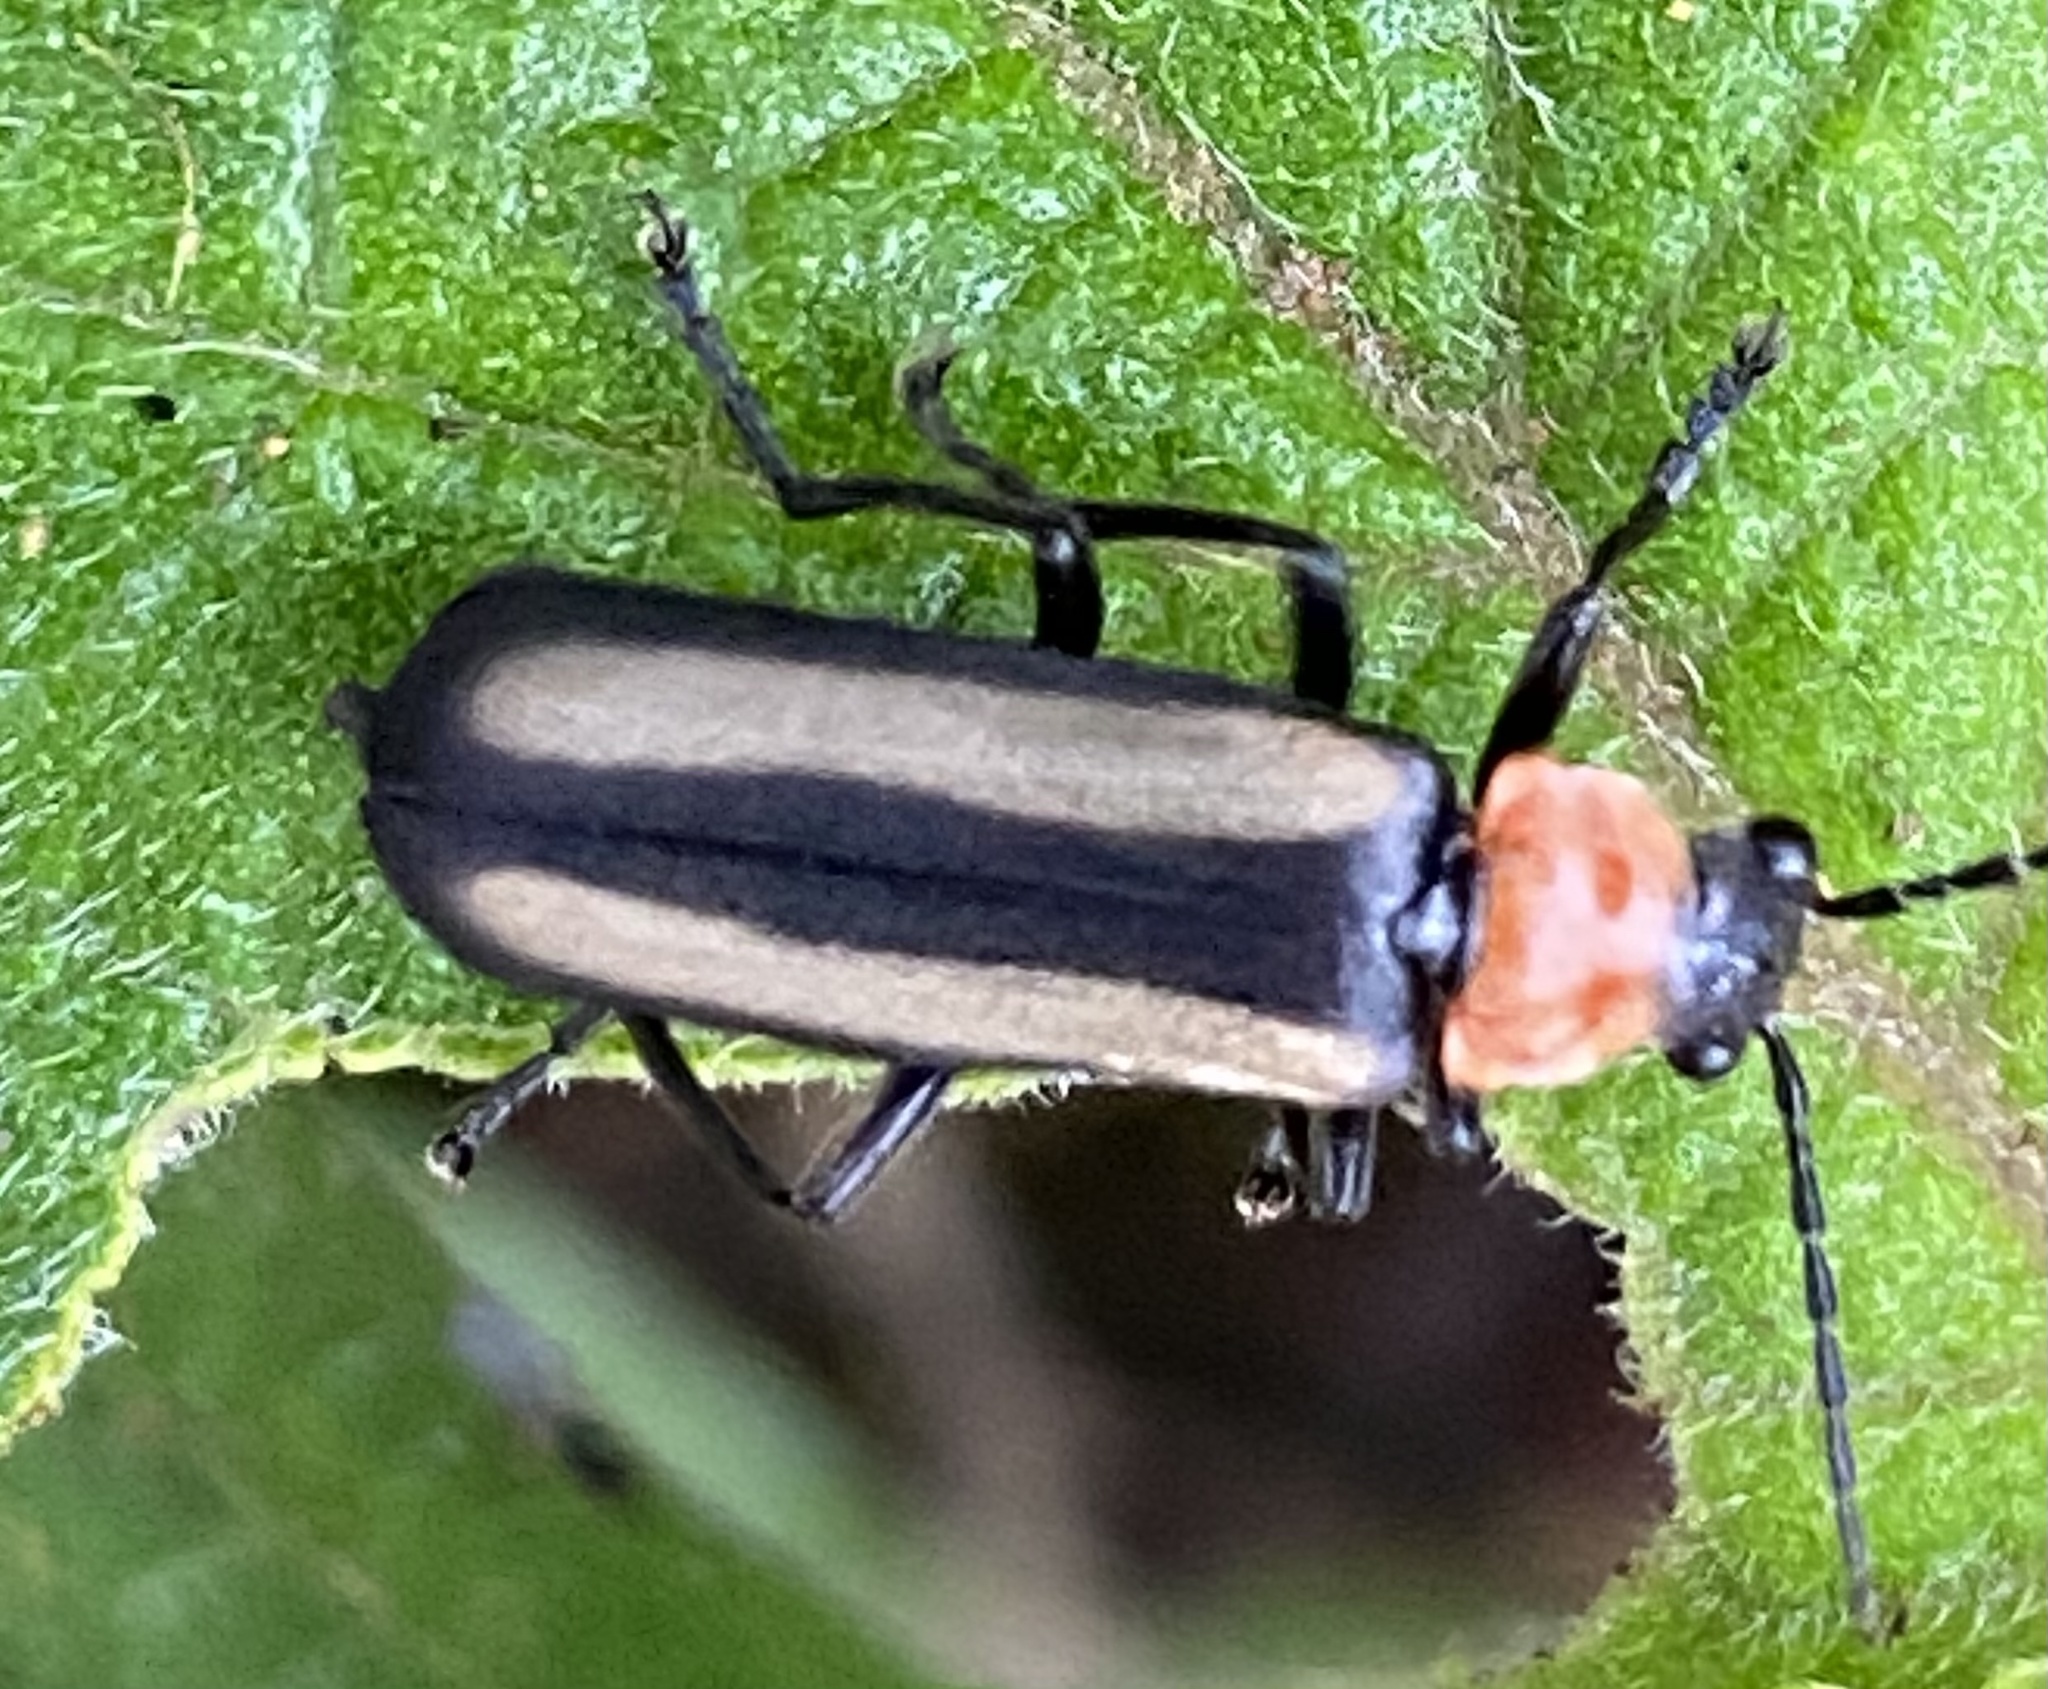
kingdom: Animalia
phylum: Arthropoda
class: Insecta
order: Coleoptera
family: Cantharidae
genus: Discodon
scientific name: Discodon
